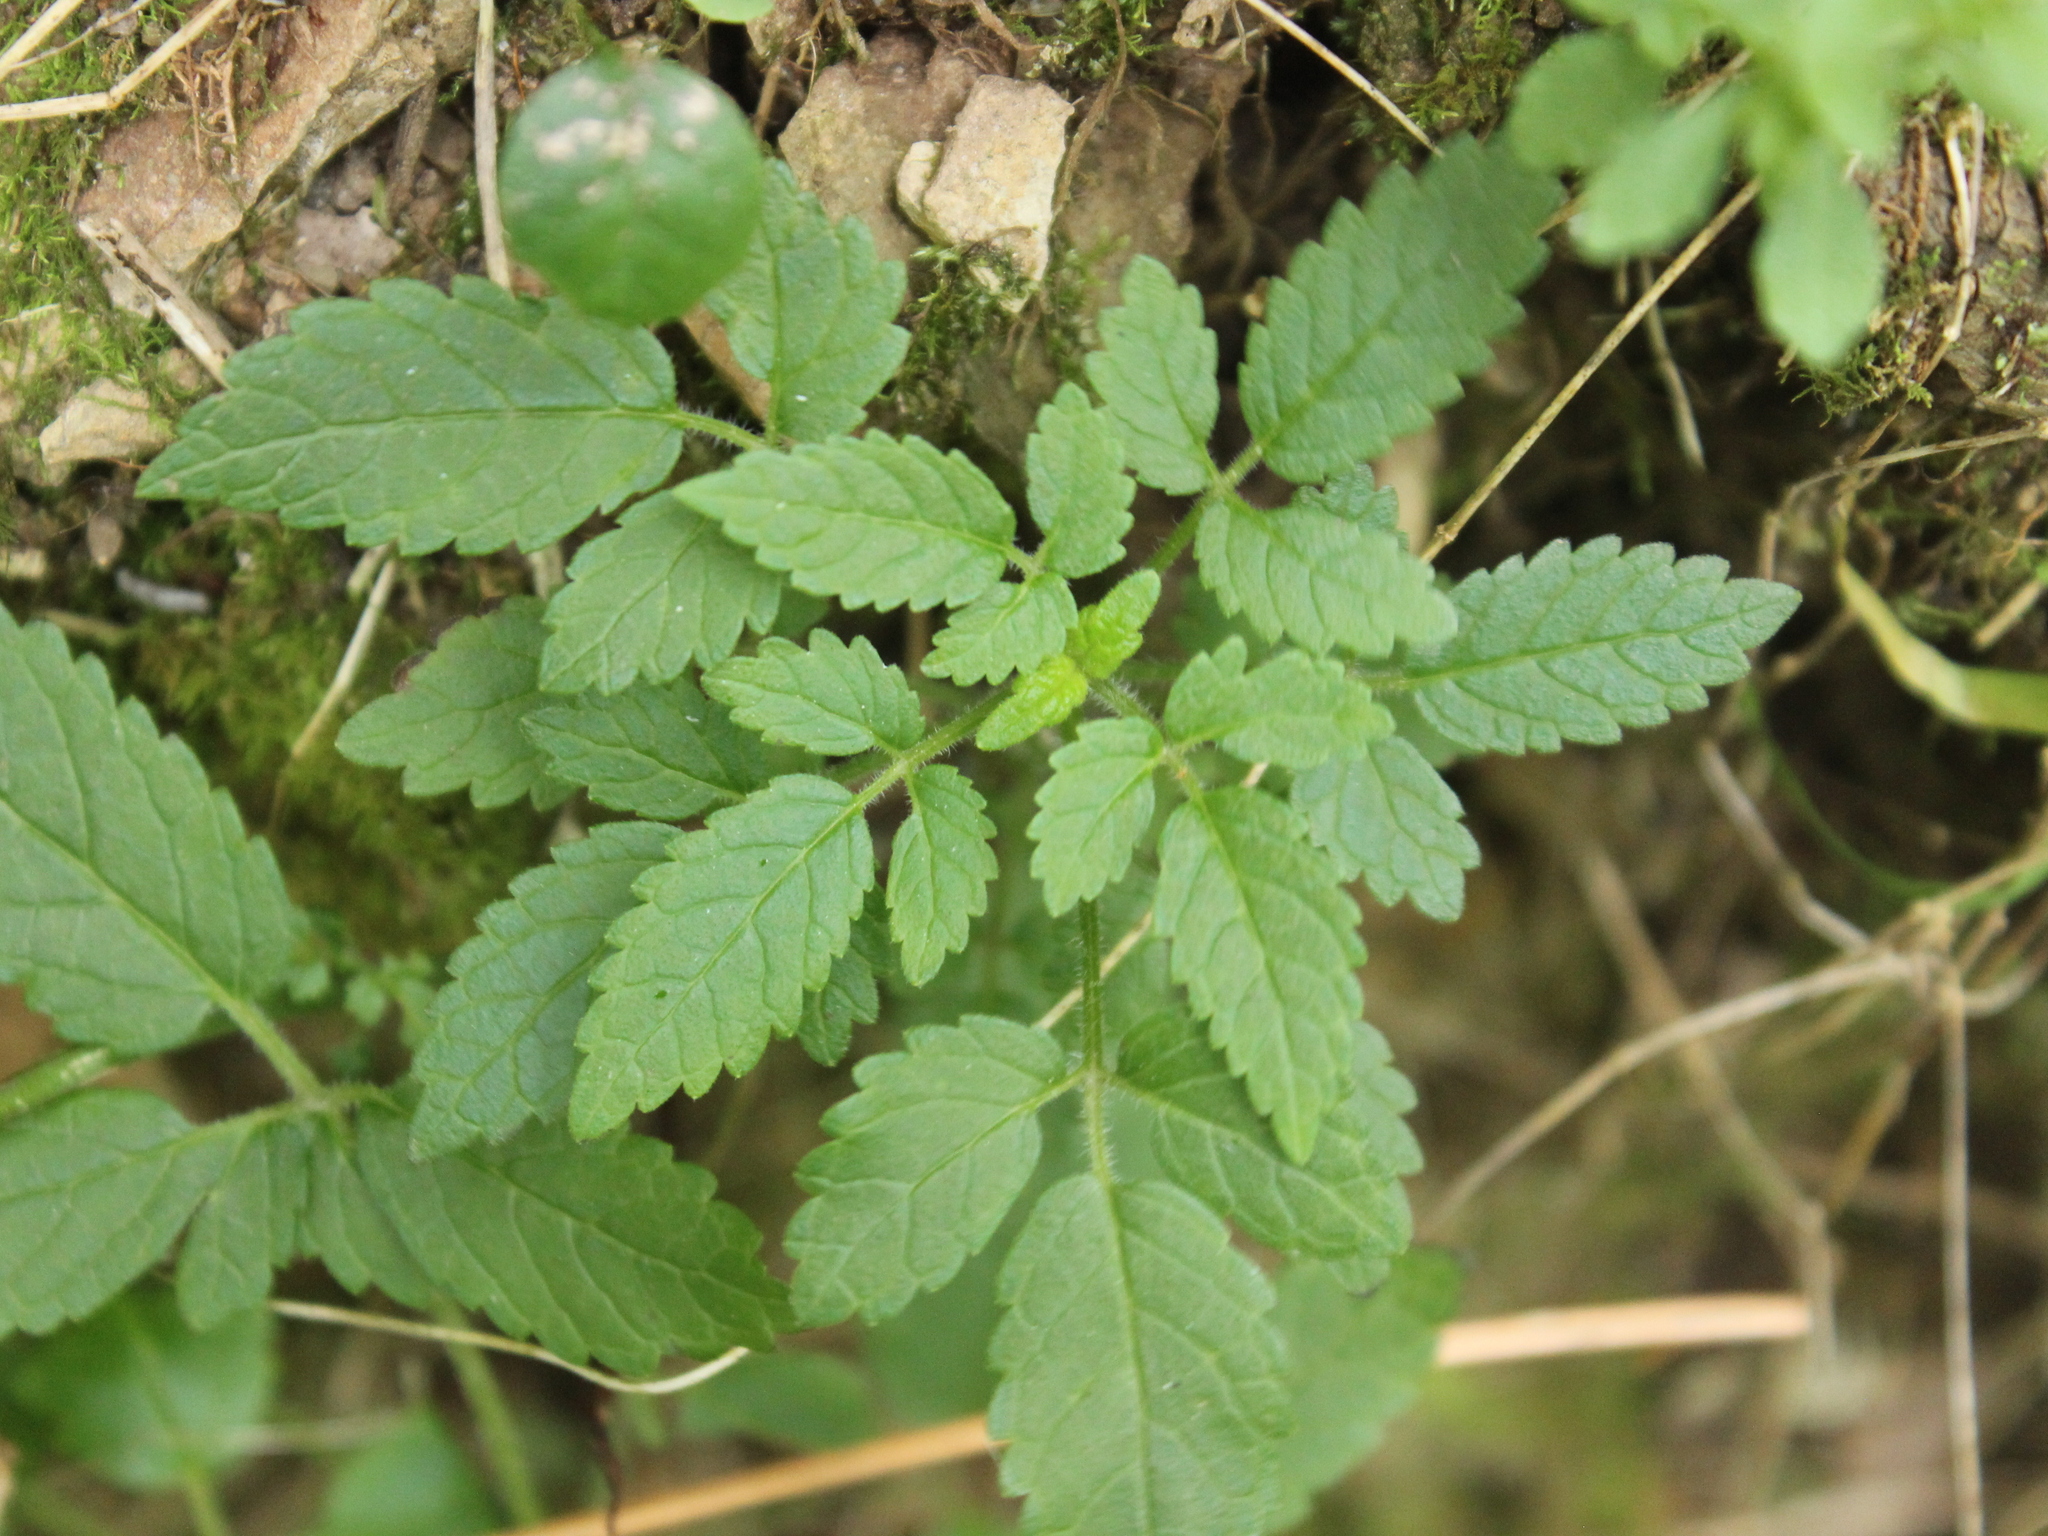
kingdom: Plantae
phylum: Tracheophyta
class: Magnoliopsida
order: Lamiales
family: Lamiaceae
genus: Cedronella
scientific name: Cedronella canariensis
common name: Canary islands balm
